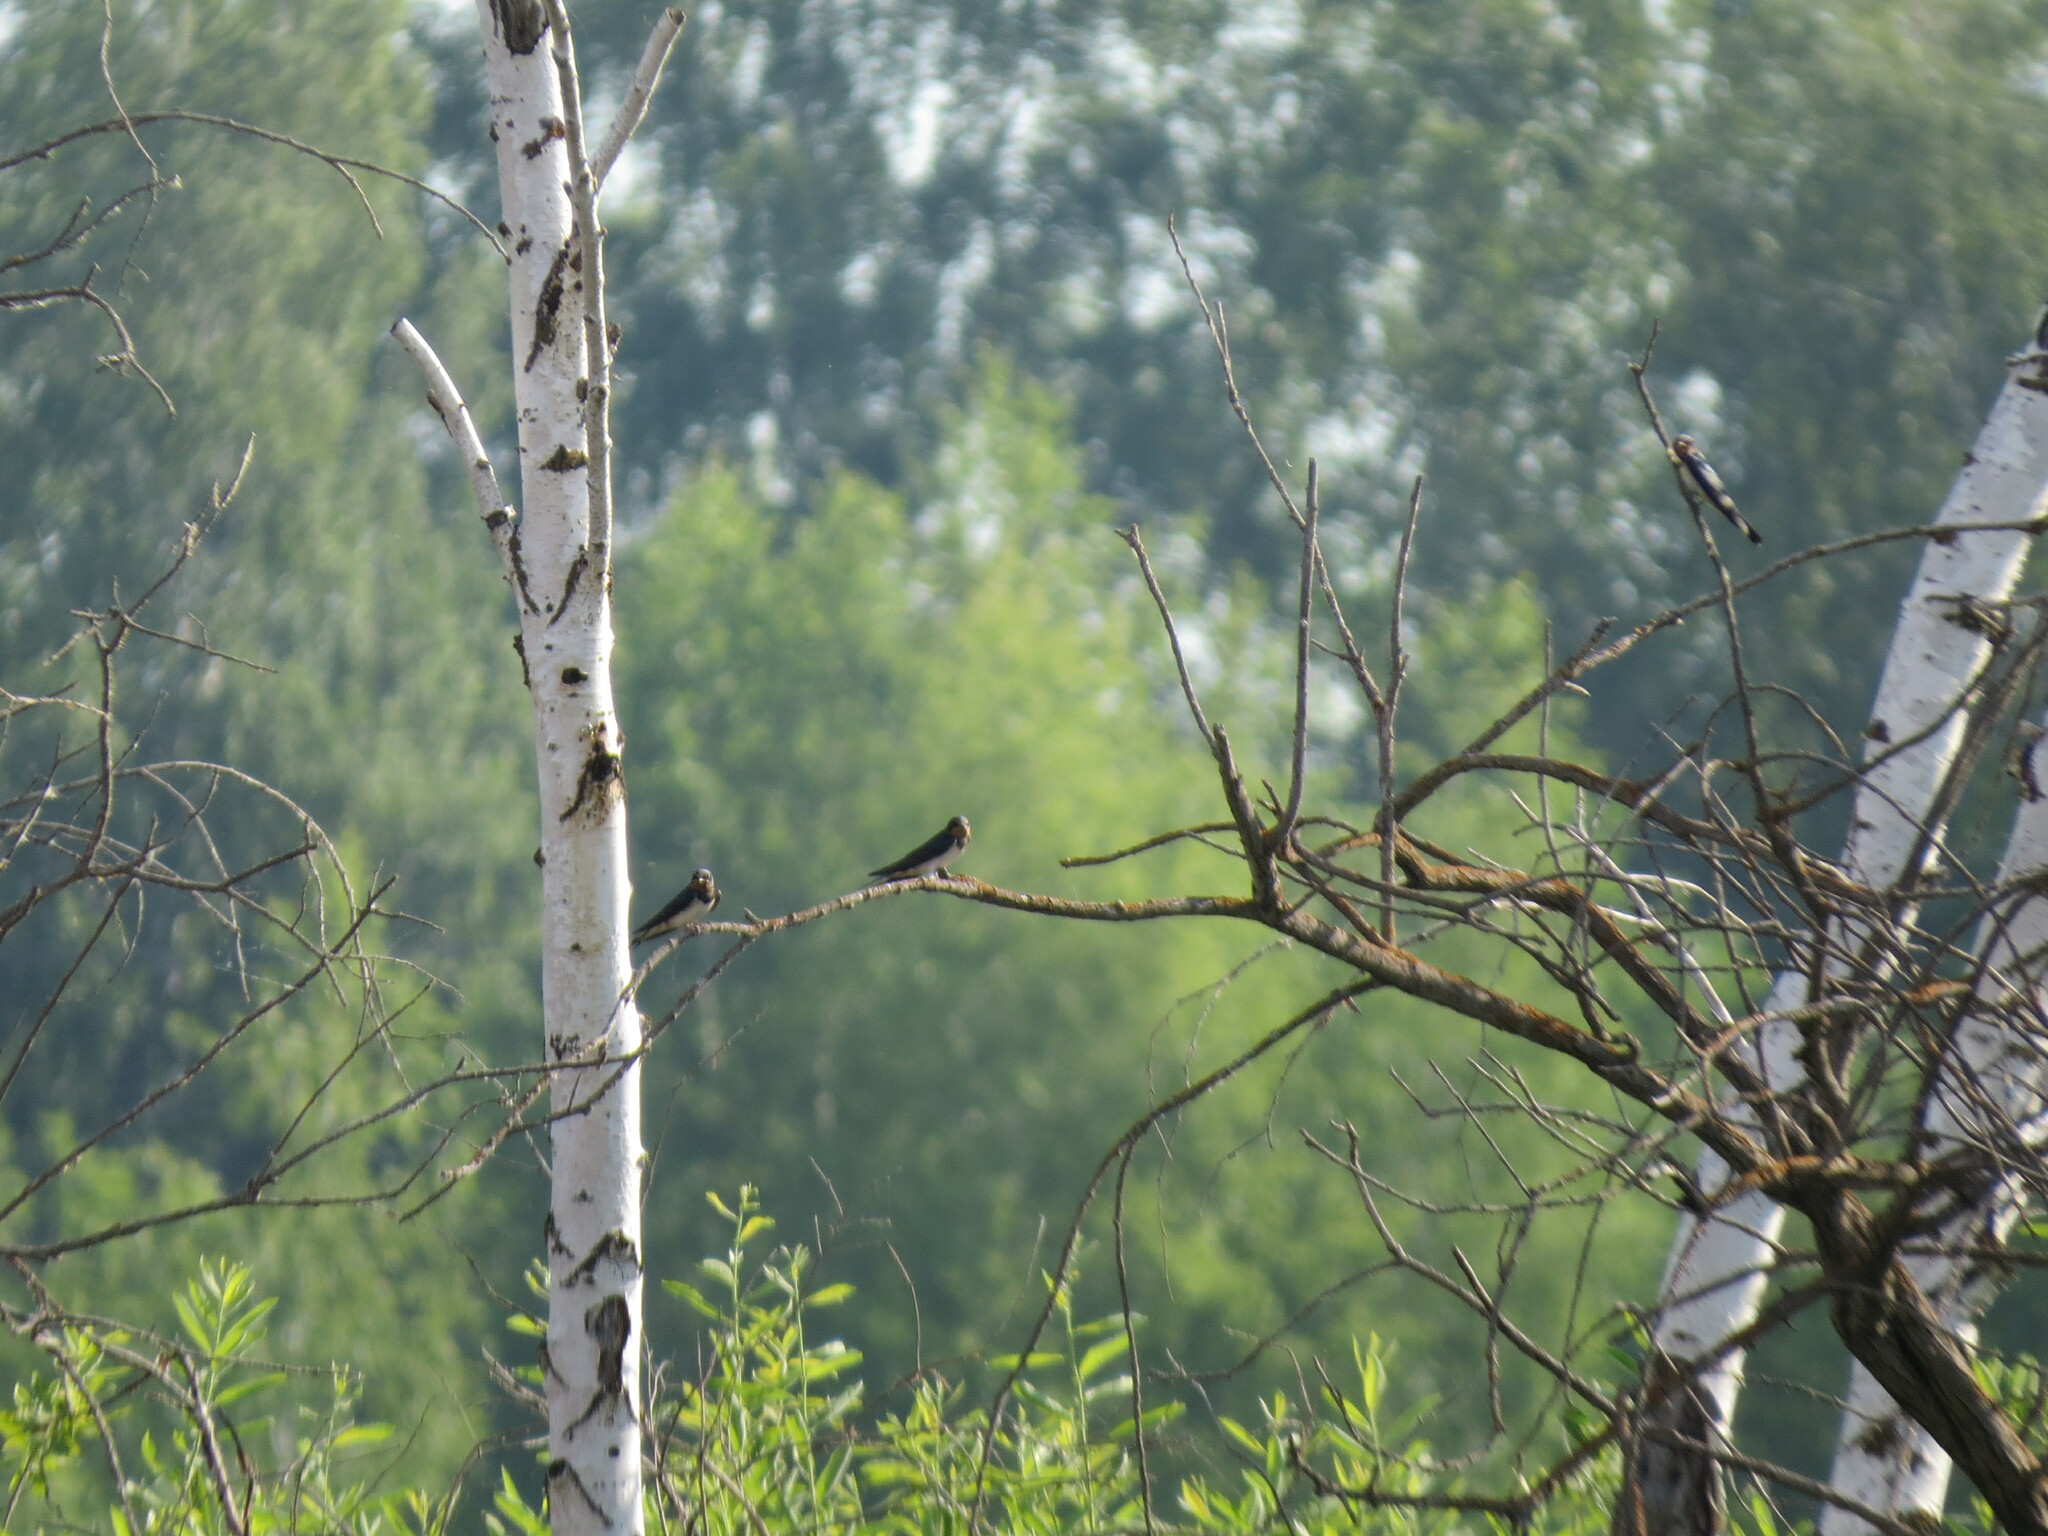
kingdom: Animalia
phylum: Chordata
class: Aves
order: Passeriformes
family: Hirundinidae
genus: Hirundo
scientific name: Hirundo rustica
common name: Barn swallow
